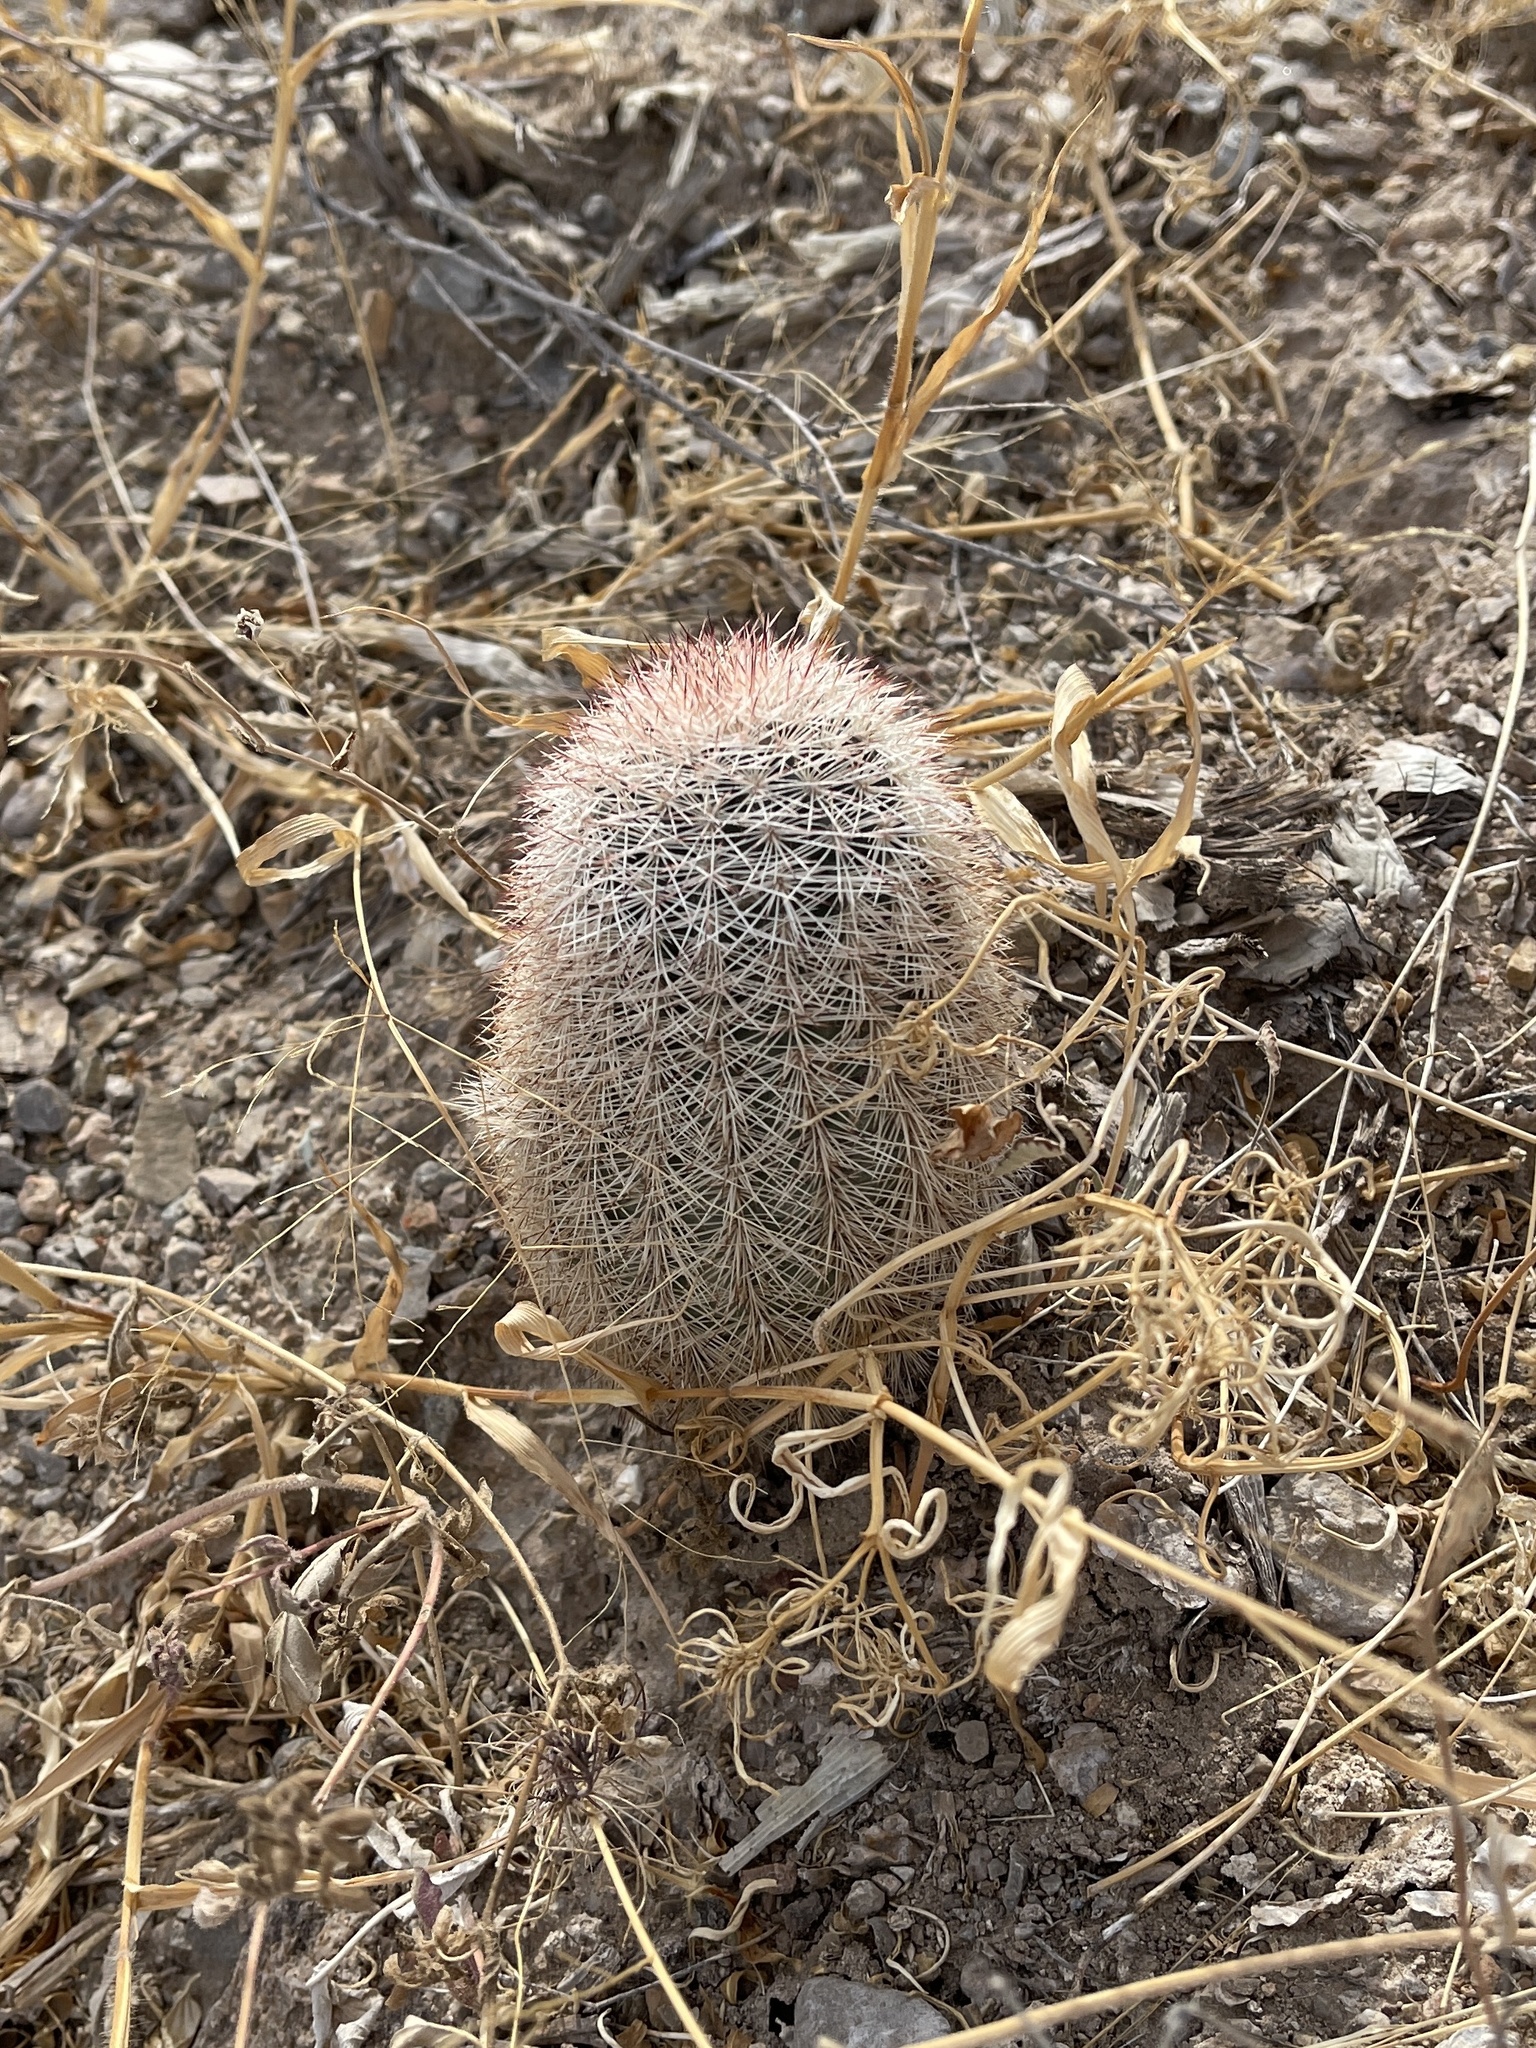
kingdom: Plantae
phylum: Tracheophyta
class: Magnoliopsida
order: Caryophyllales
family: Cactaceae
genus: Echinocereus
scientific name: Echinocereus dasyacanthus
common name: Spiny hedgehog cactus
